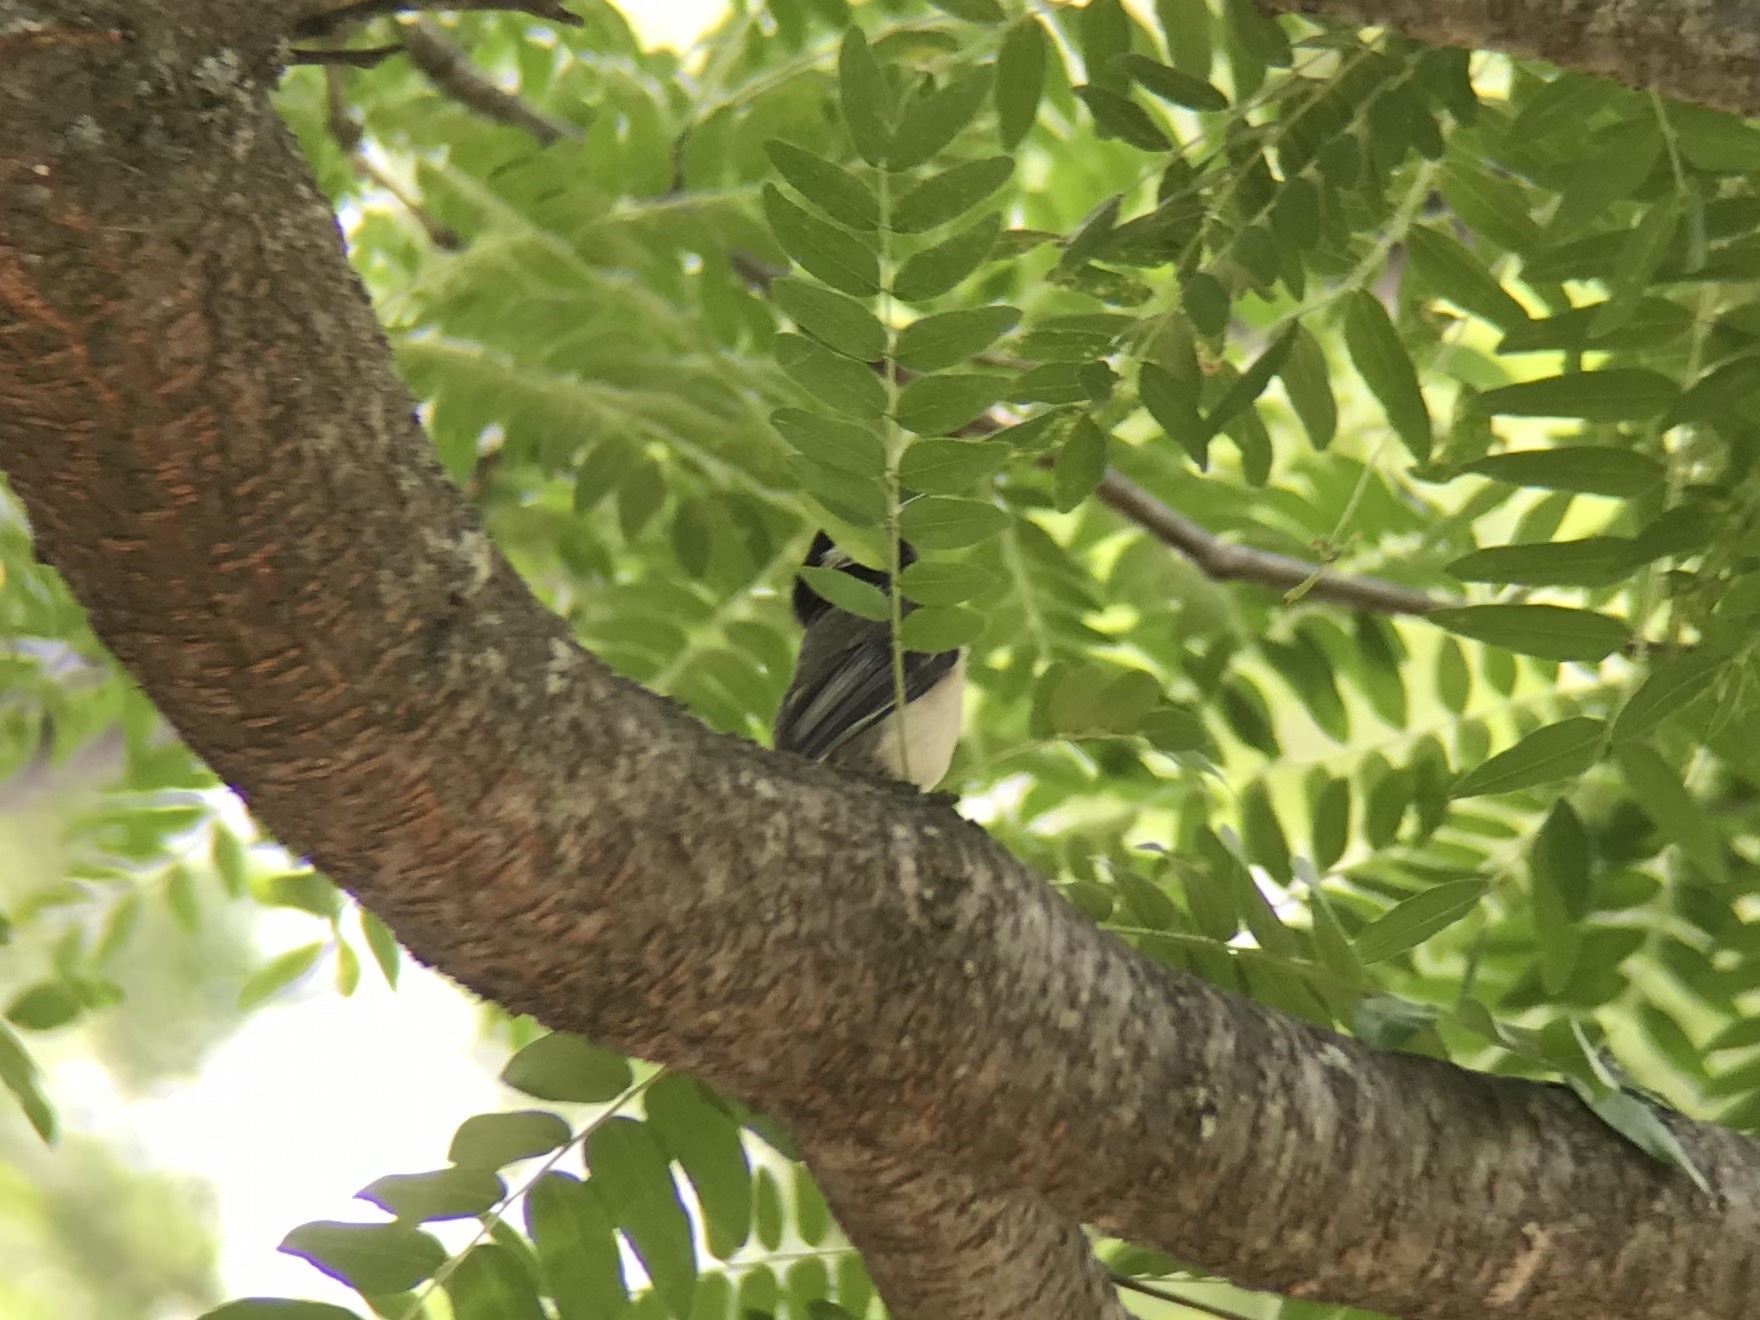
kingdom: Animalia
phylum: Chordata
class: Aves
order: Passeriformes
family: Paridae
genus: Poecile
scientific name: Poecile atricapillus
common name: Black-capped chickadee
